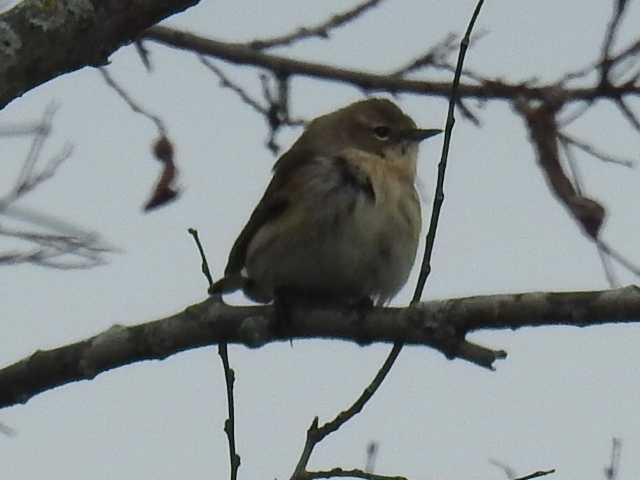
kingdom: Animalia
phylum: Chordata
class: Aves
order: Passeriformes
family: Parulidae
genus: Setophaga
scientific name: Setophaga coronata
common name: Myrtle warbler
